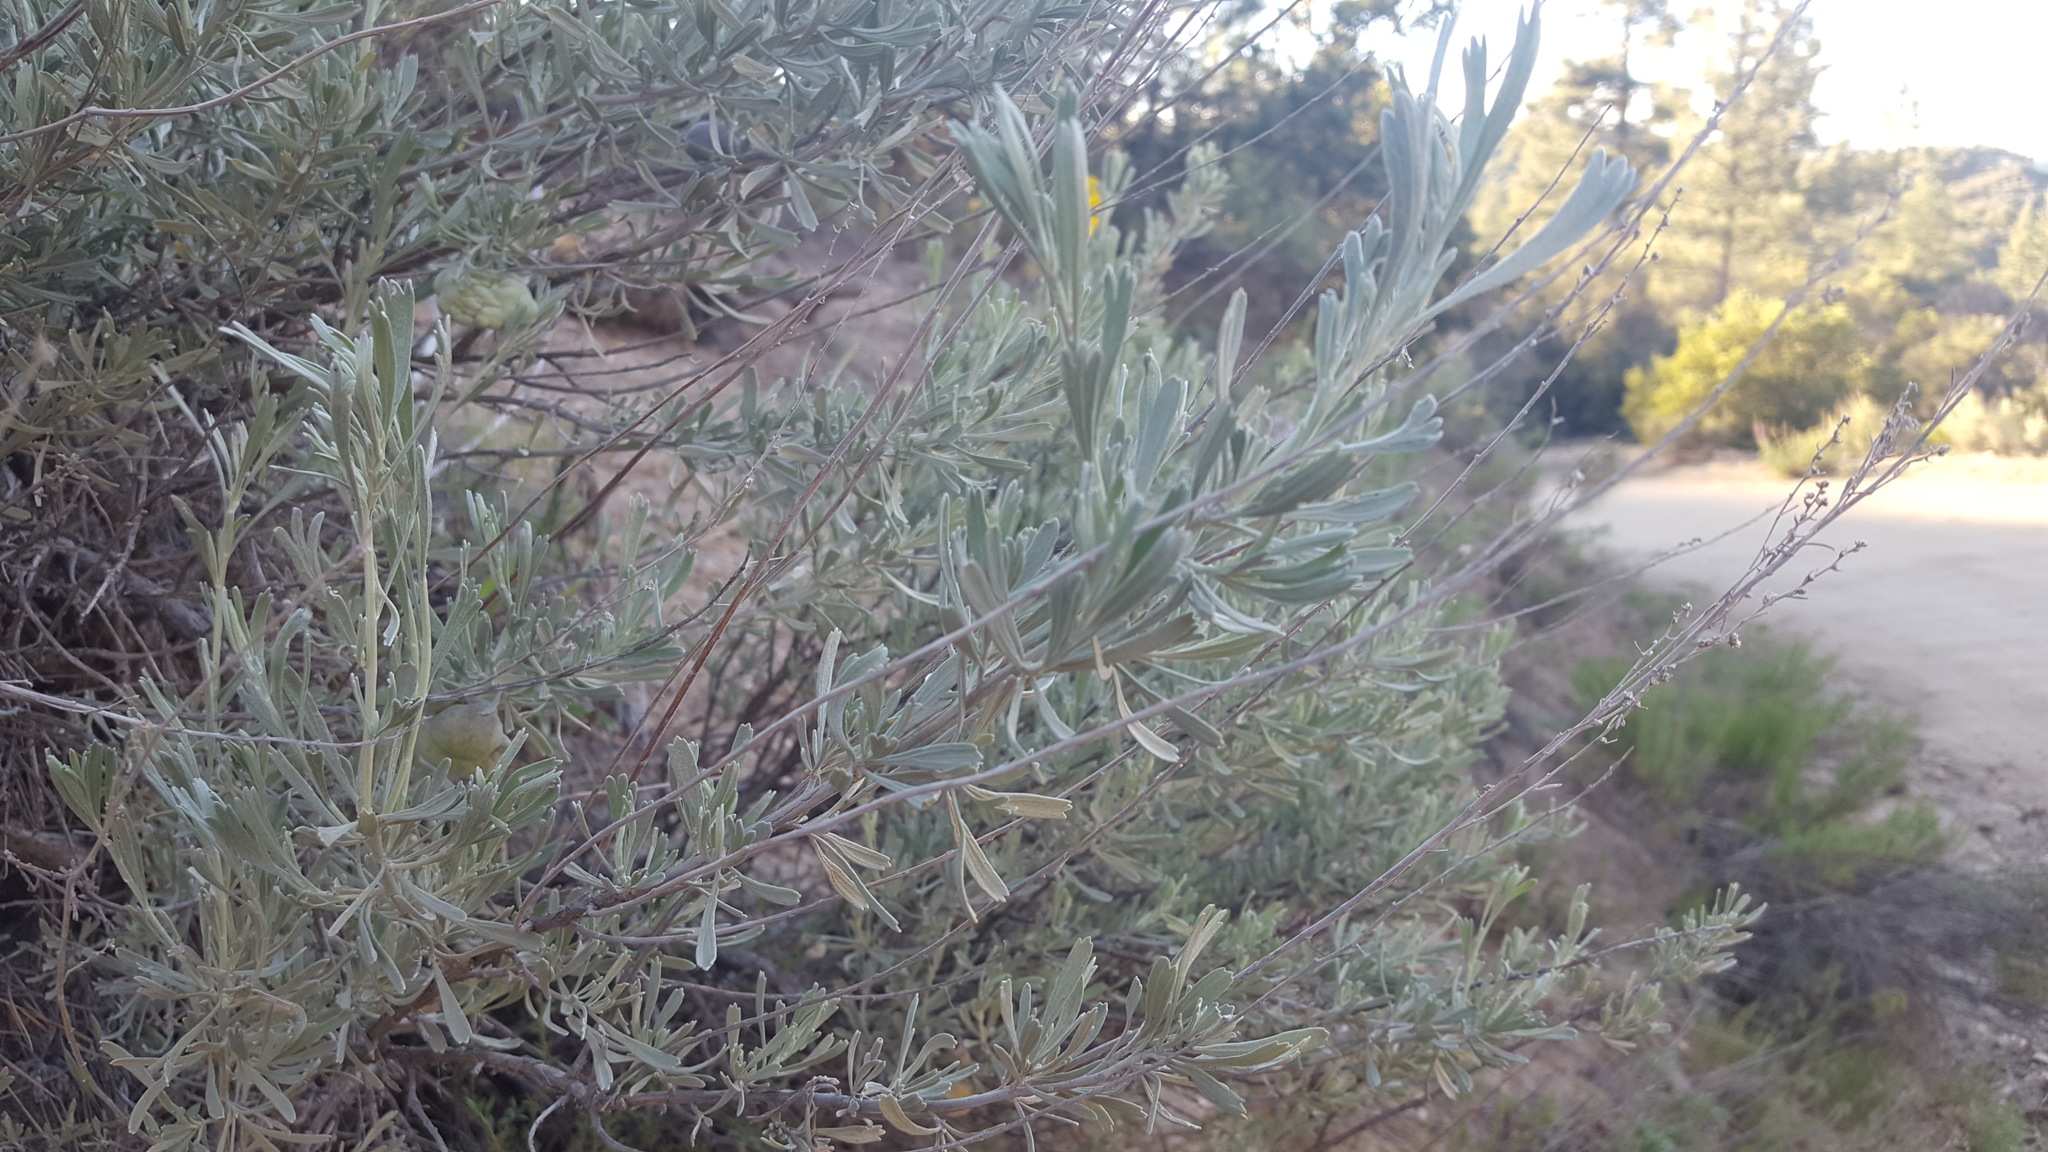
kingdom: Plantae
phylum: Tracheophyta
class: Magnoliopsida
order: Asterales
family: Asteraceae
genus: Artemisia
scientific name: Artemisia tridentata
